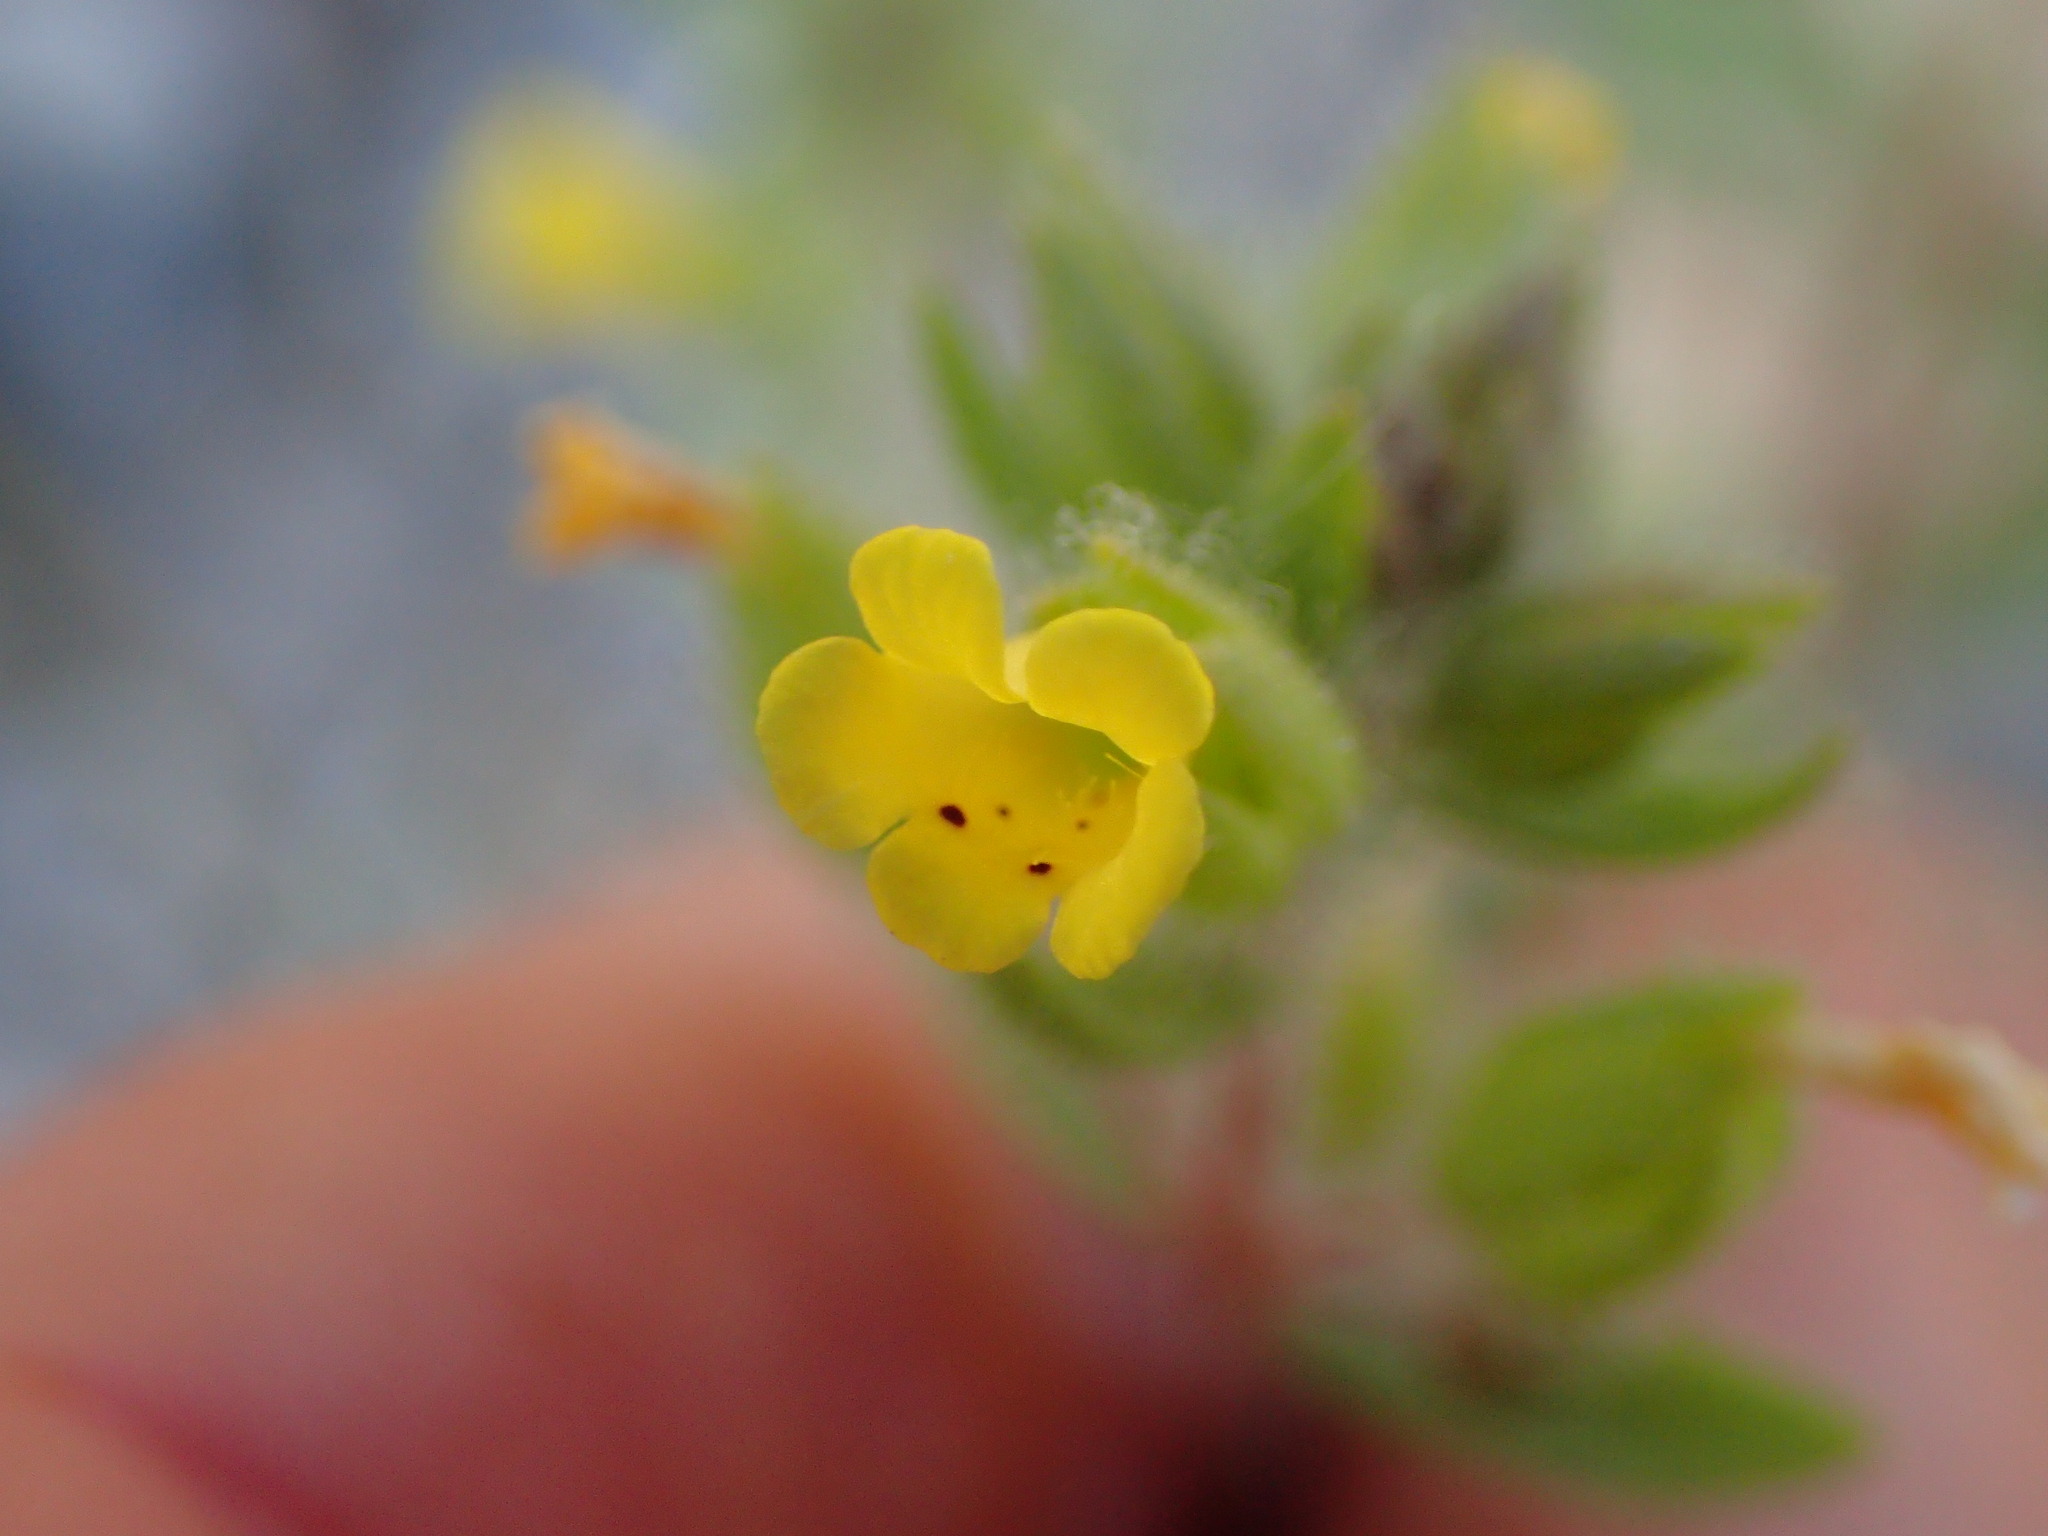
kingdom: Plantae
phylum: Tracheophyta
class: Magnoliopsida
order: Lamiales
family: Phrymaceae
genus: Mimetanthe
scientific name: Mimetanthe pilosa
